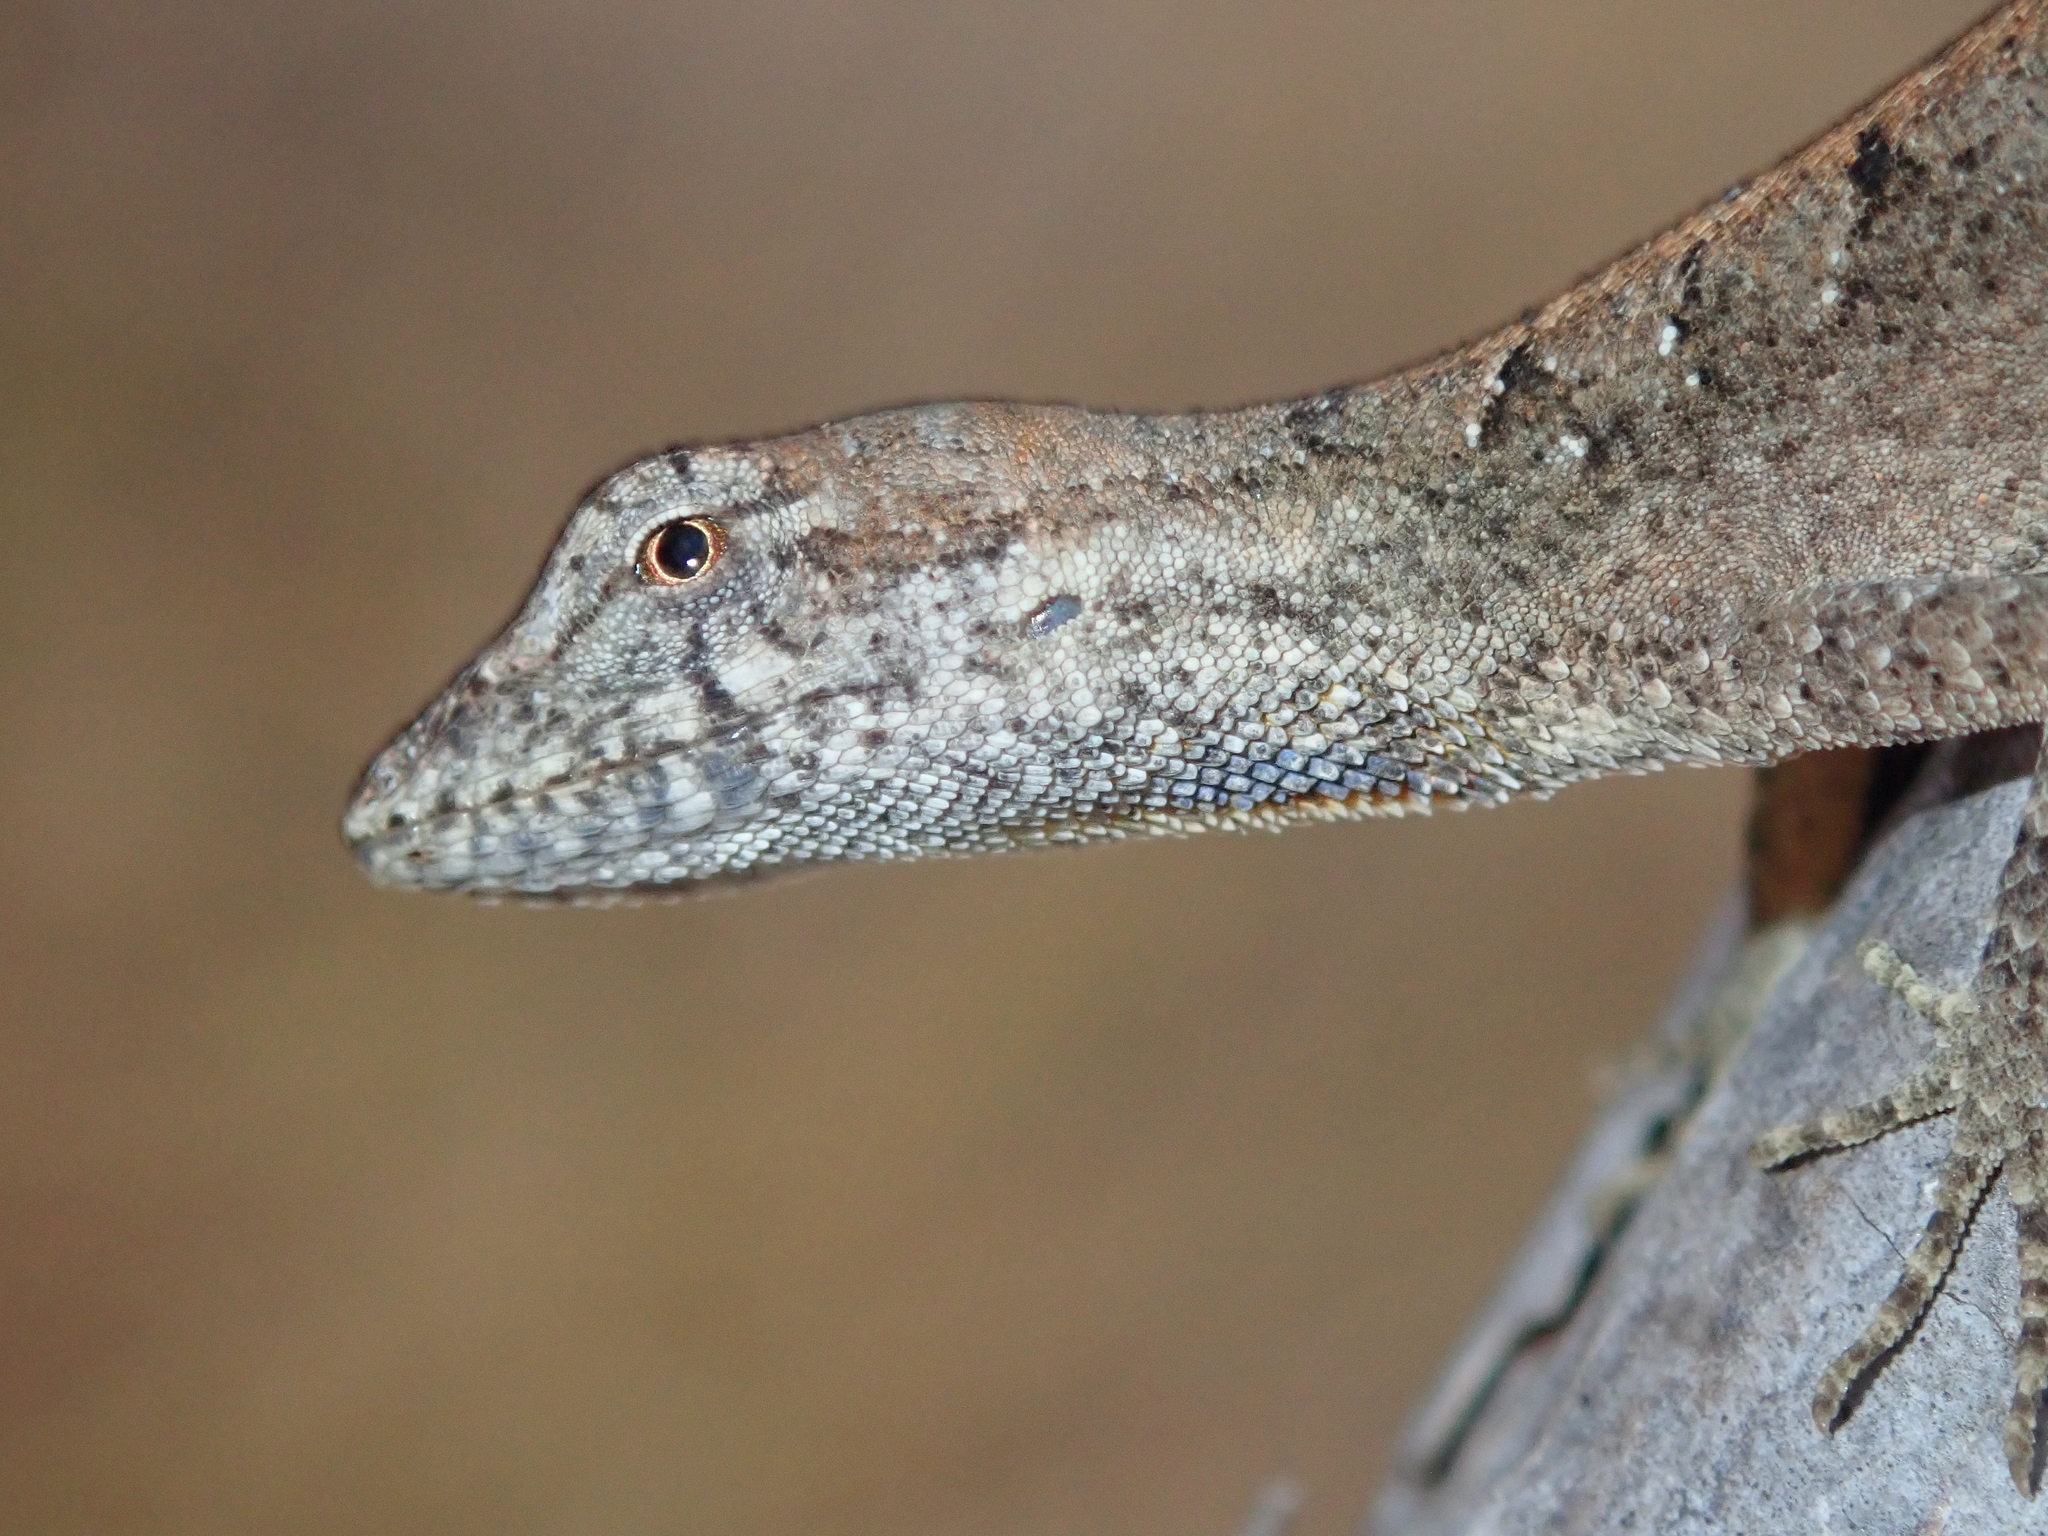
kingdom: Animalia
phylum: Chordata
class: Squamata
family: Dactyloidae
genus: Anolis
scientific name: Anolis meridionalis
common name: Meridian anole
